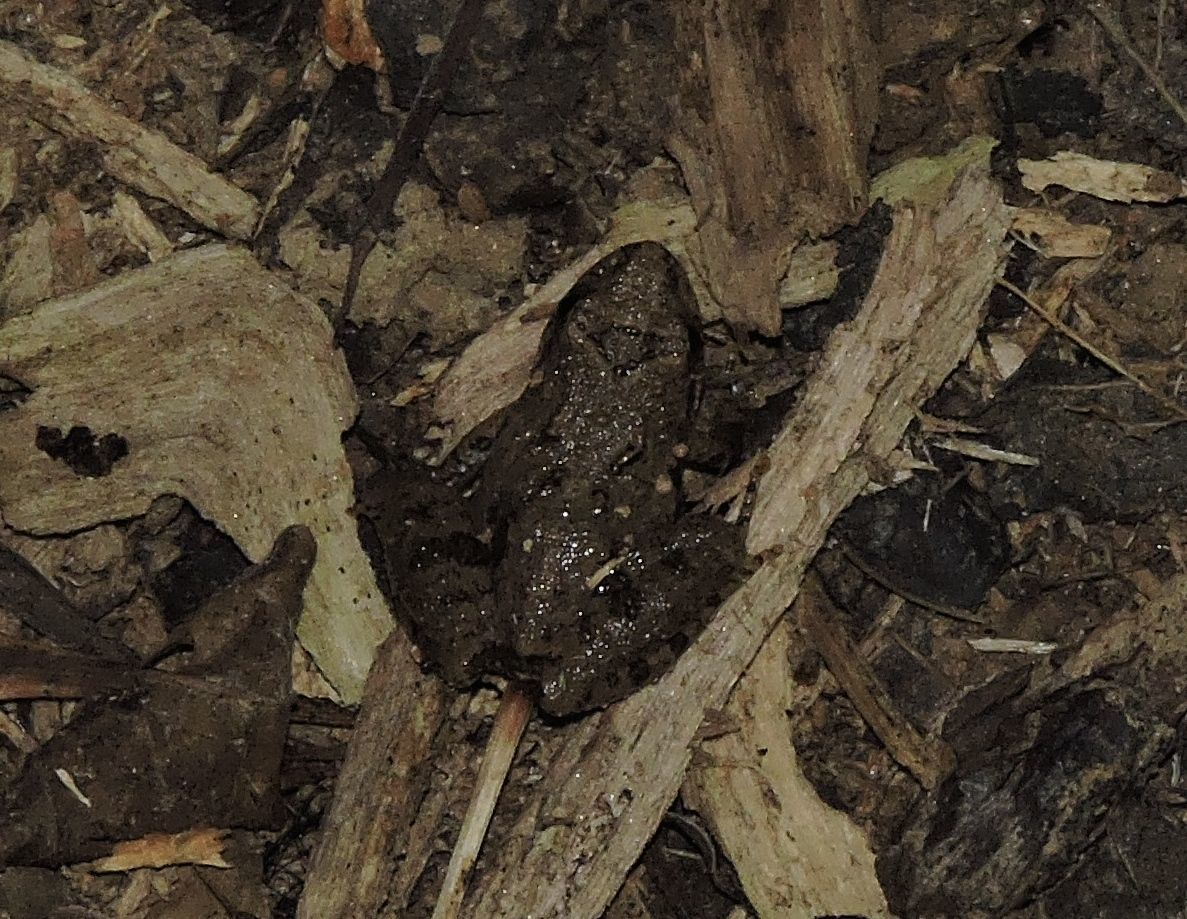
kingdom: Animalia
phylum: Chordata
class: Amphibia
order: Anura
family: Hylidae
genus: Acris
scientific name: Acris crepitans
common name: Northern cricket frog
